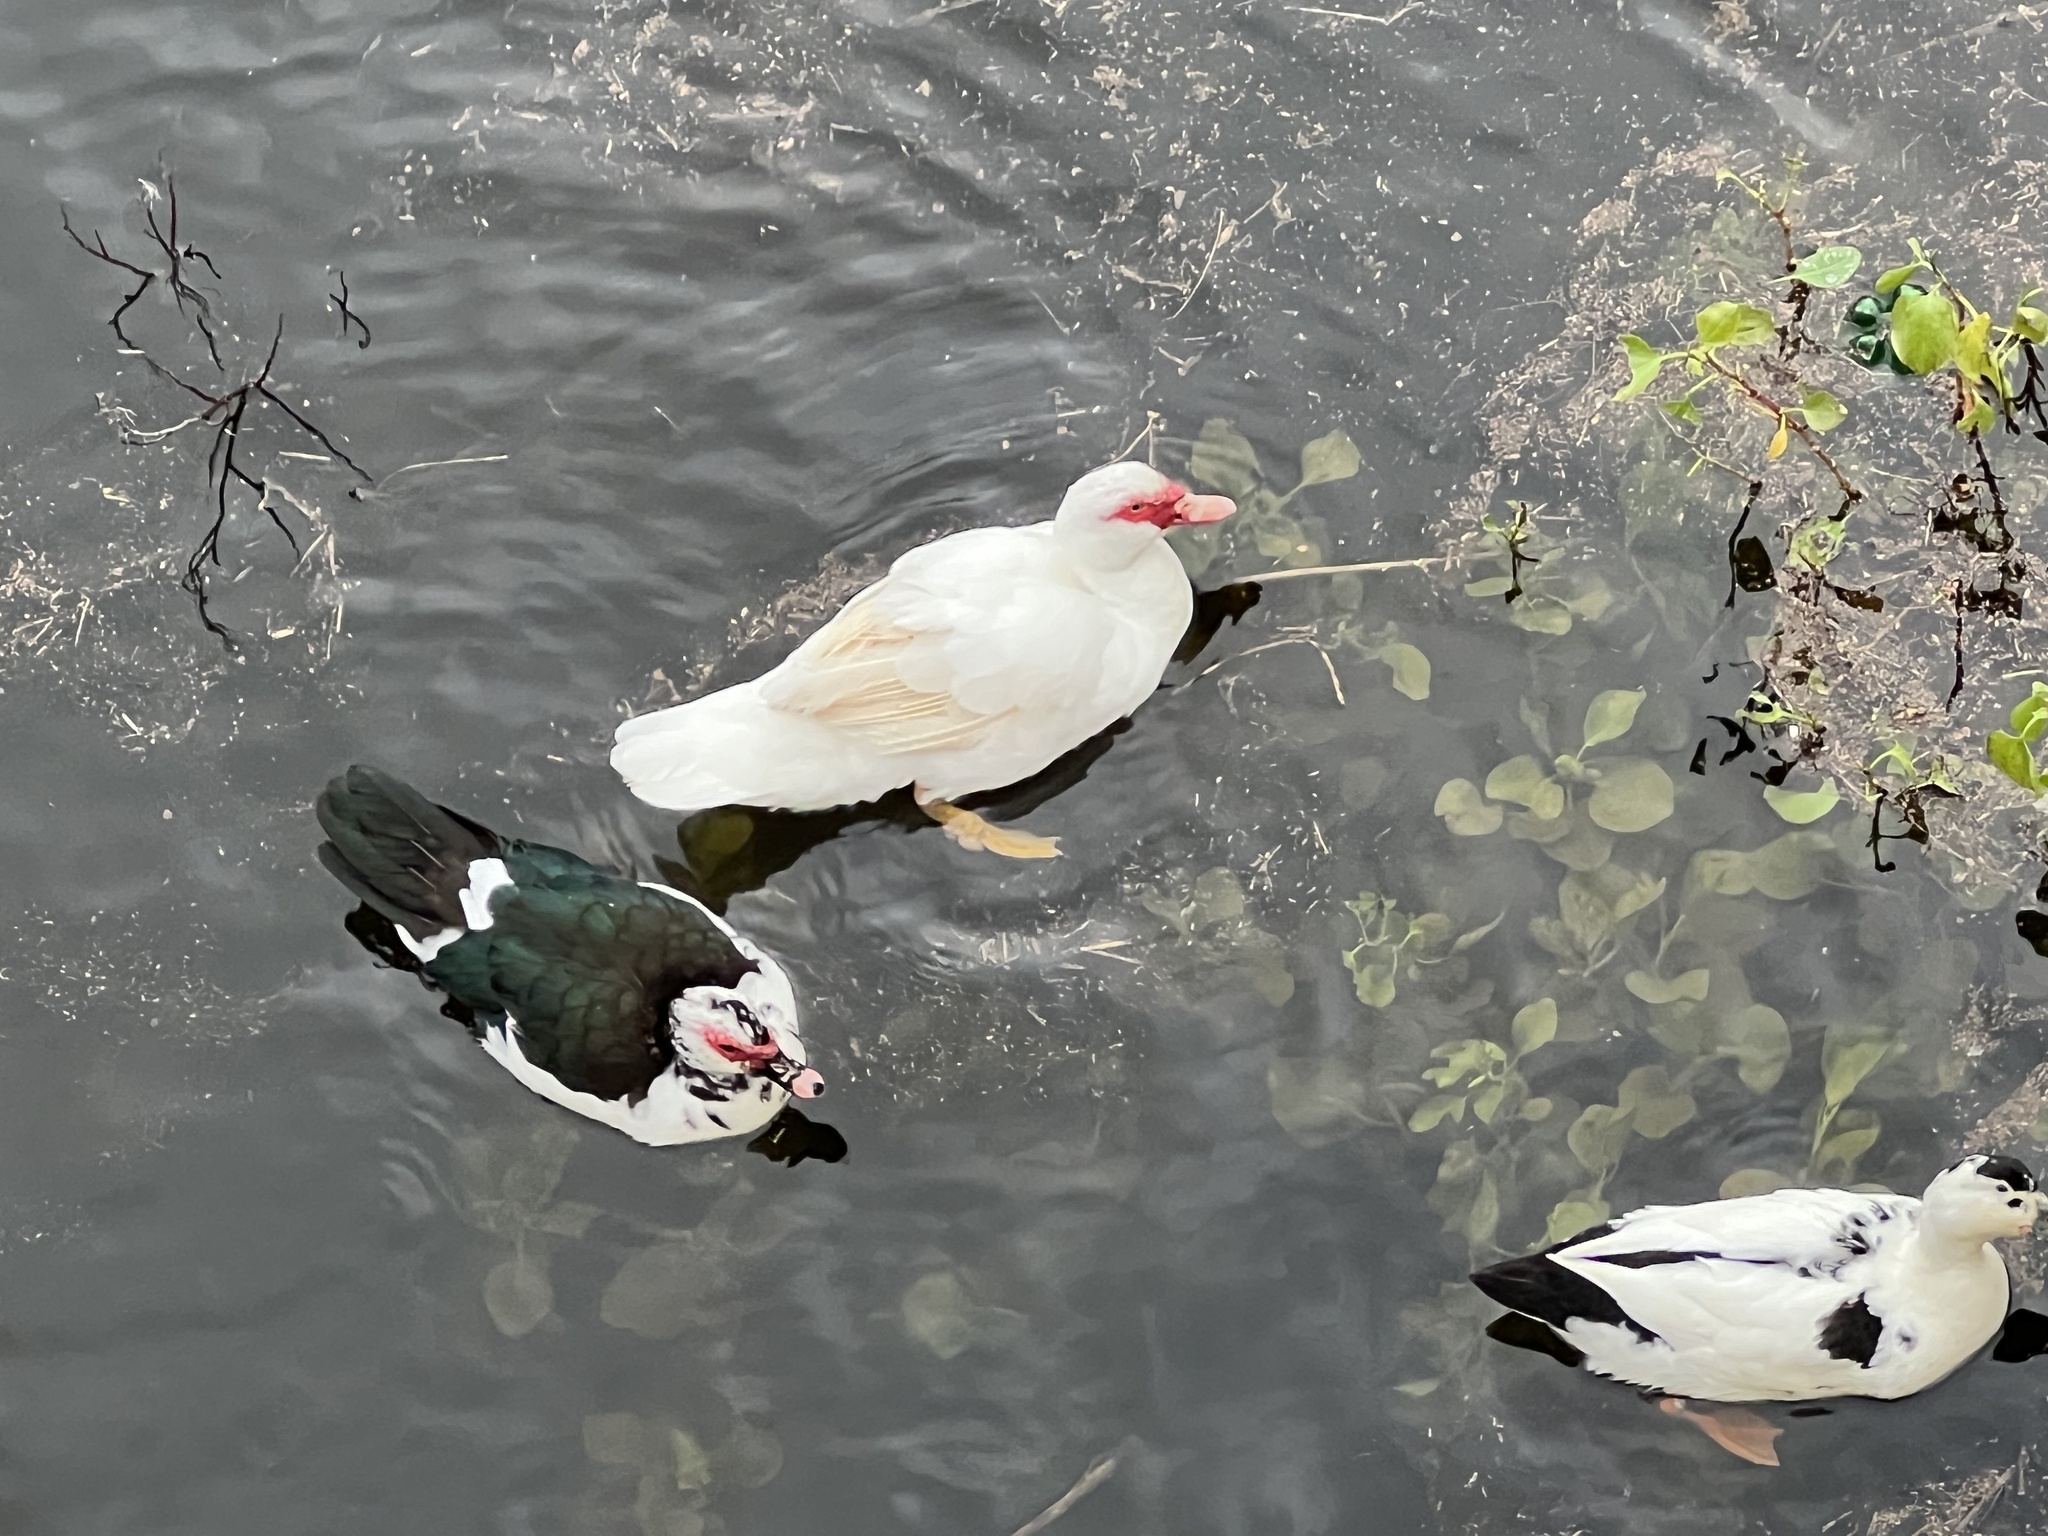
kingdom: Animalia
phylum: Chordata
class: Aves
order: Anseriformes
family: Anatidae
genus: Cairina
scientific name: Cairina moschata
